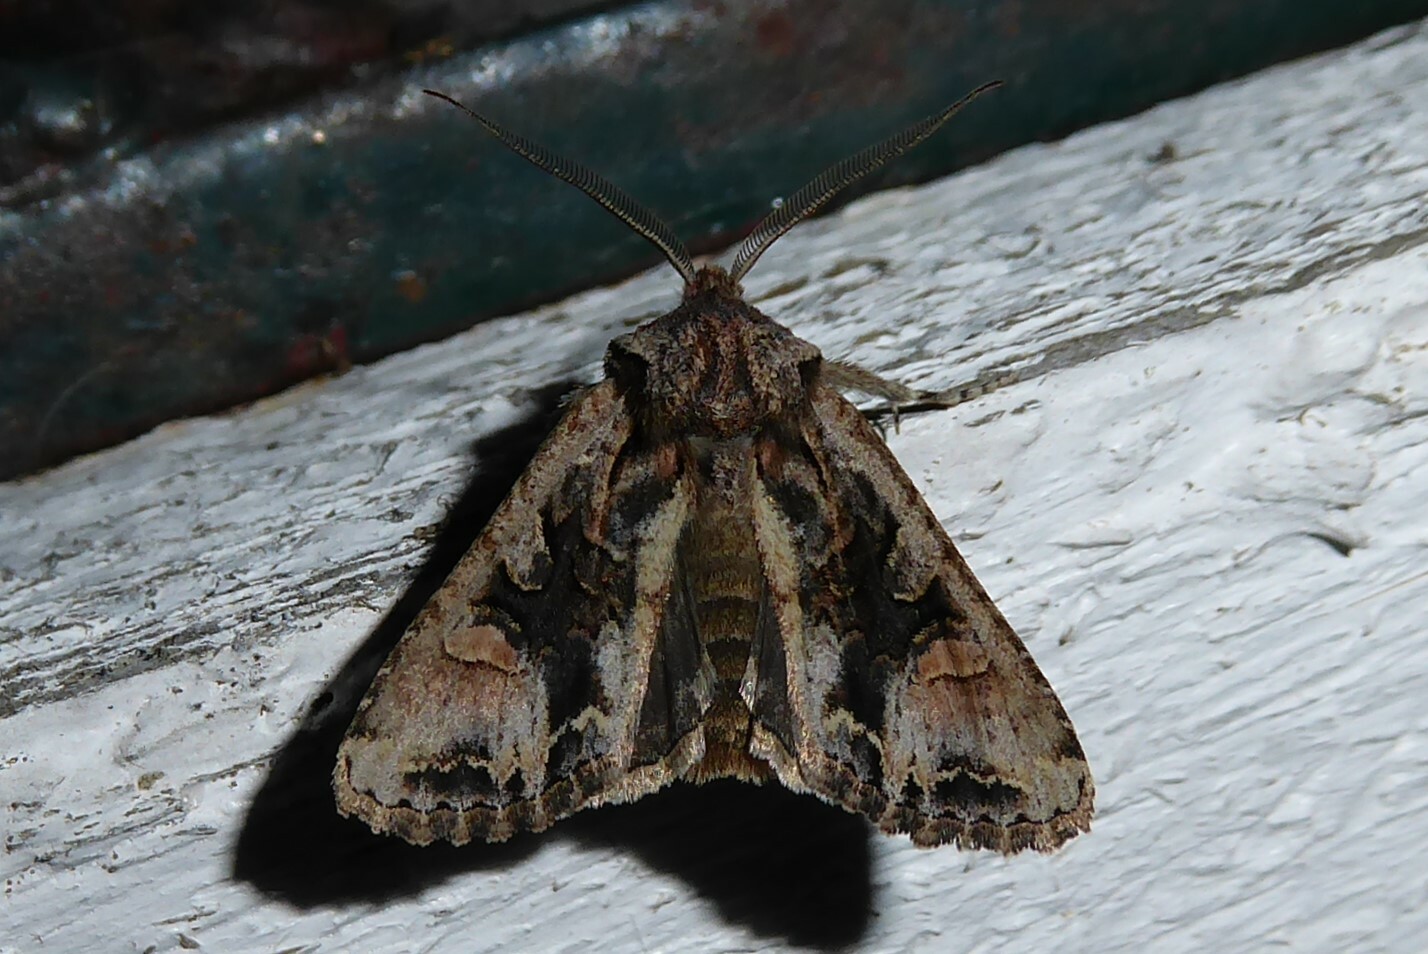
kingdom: Animalia
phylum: Arthropoda
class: Insecta
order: Lepidoptera
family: Noctuidae
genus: Ichneutica
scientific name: Ichneutica
